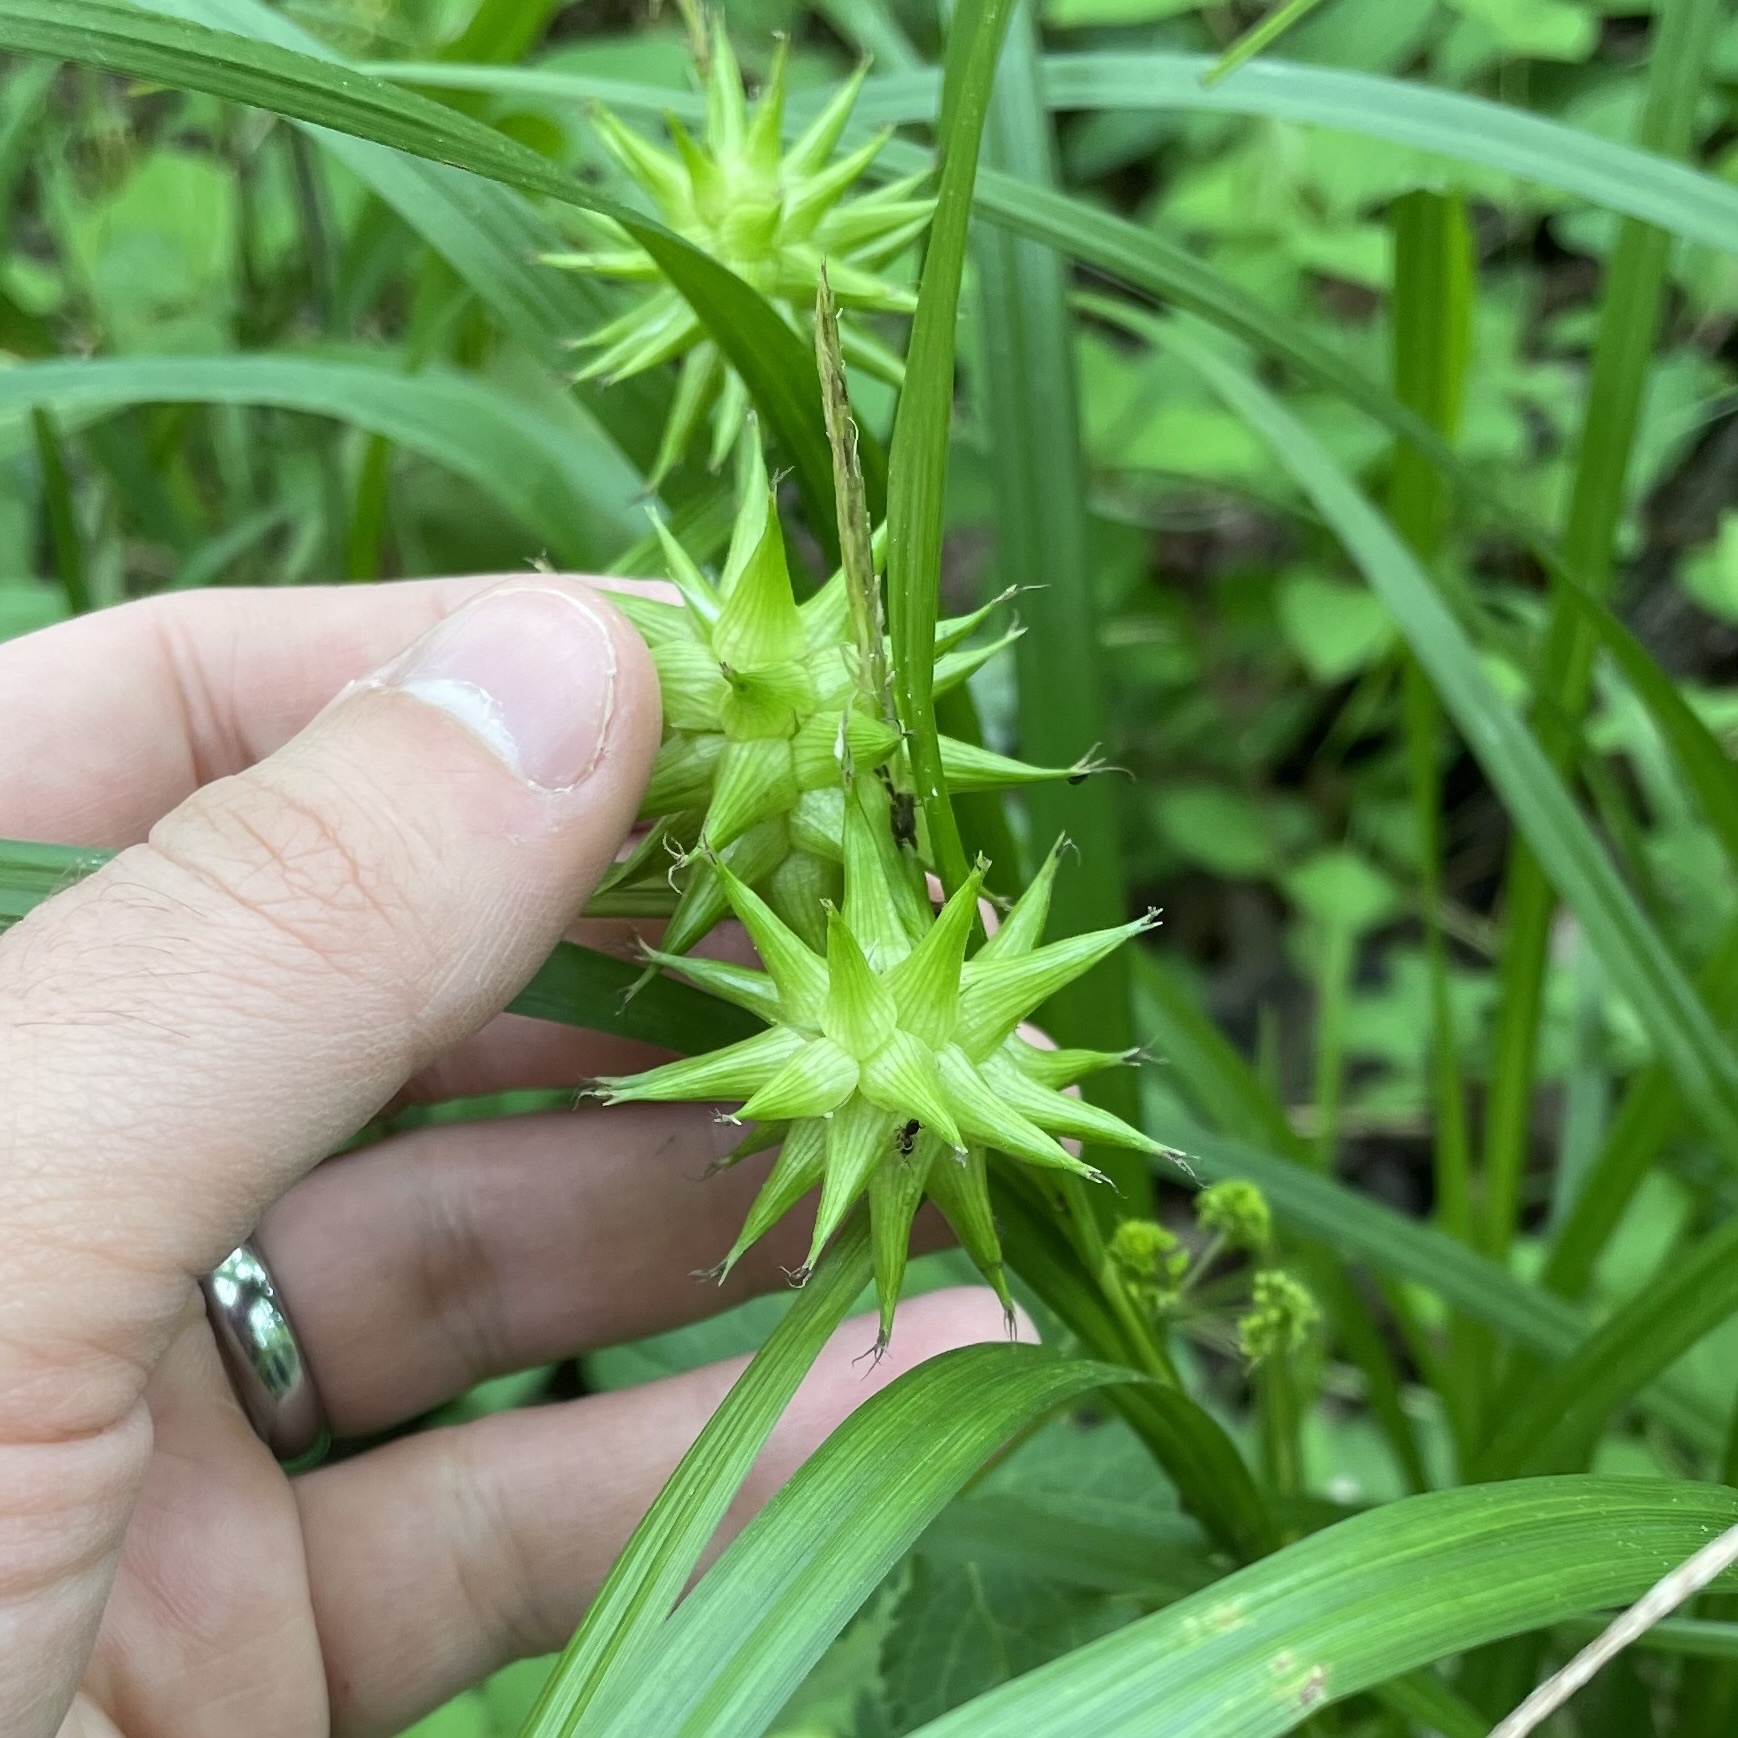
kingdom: Plantae
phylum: Tracheophyta
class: Liliopsida
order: Poales
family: Cyperaceae
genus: Carex
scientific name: Carex grayi
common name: Asa gray's sedge
